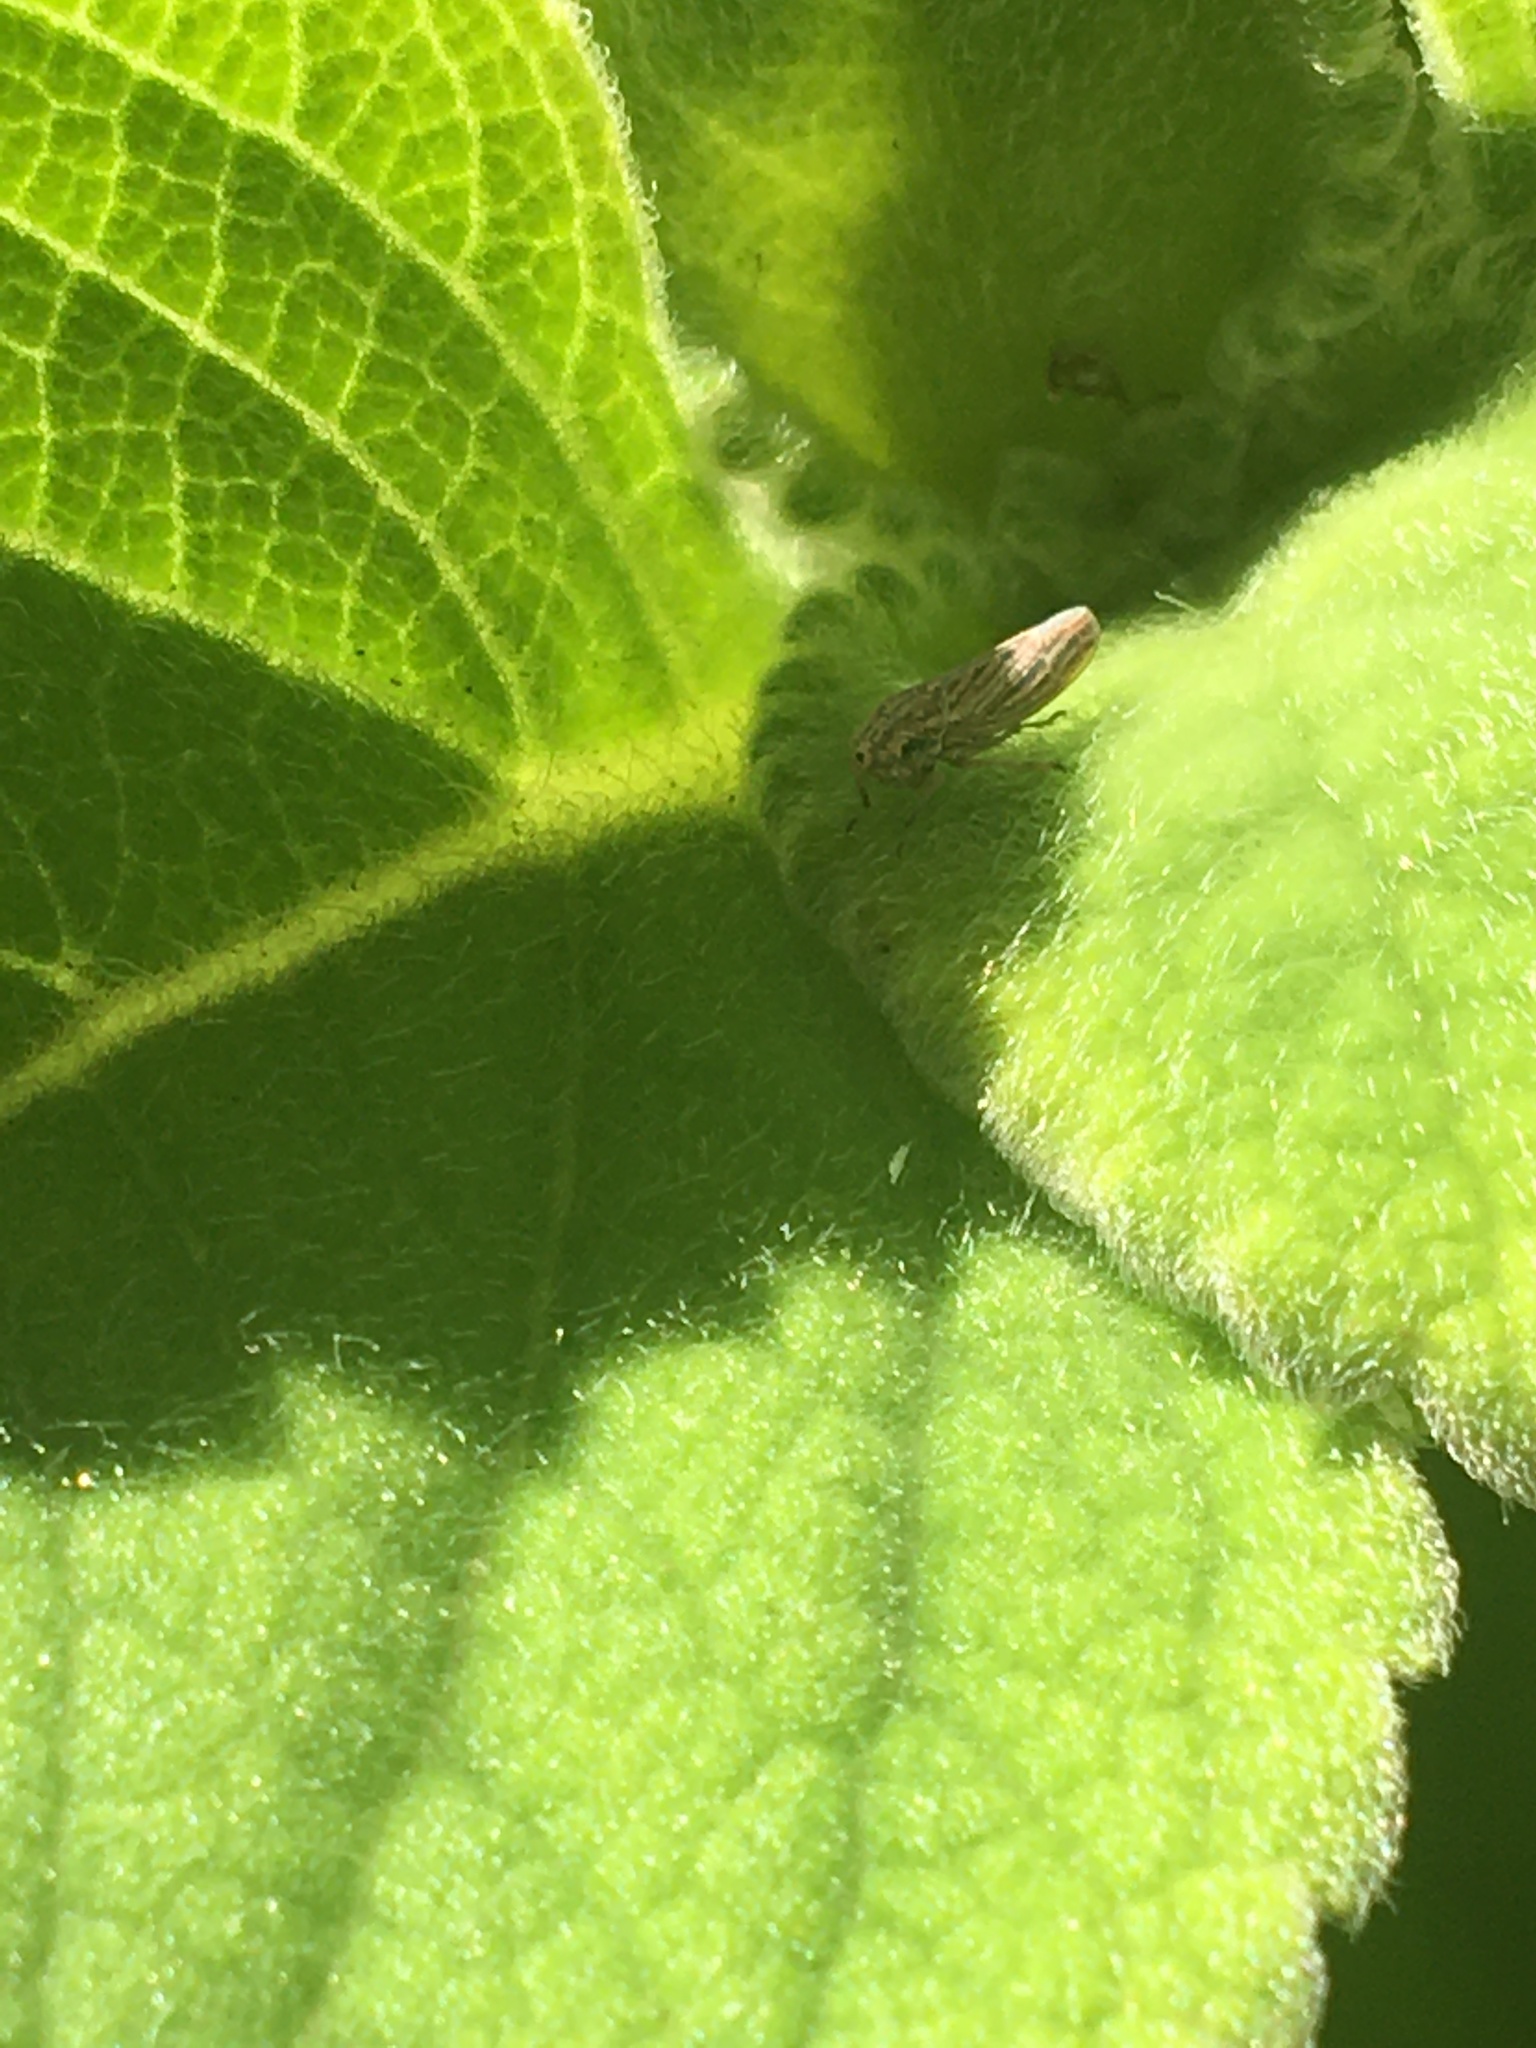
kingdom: Animalia
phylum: Arthropoda
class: Insecta
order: Hemiptera
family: Cicadellidae
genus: Neokolla
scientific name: Neokolla hieroglyphica
